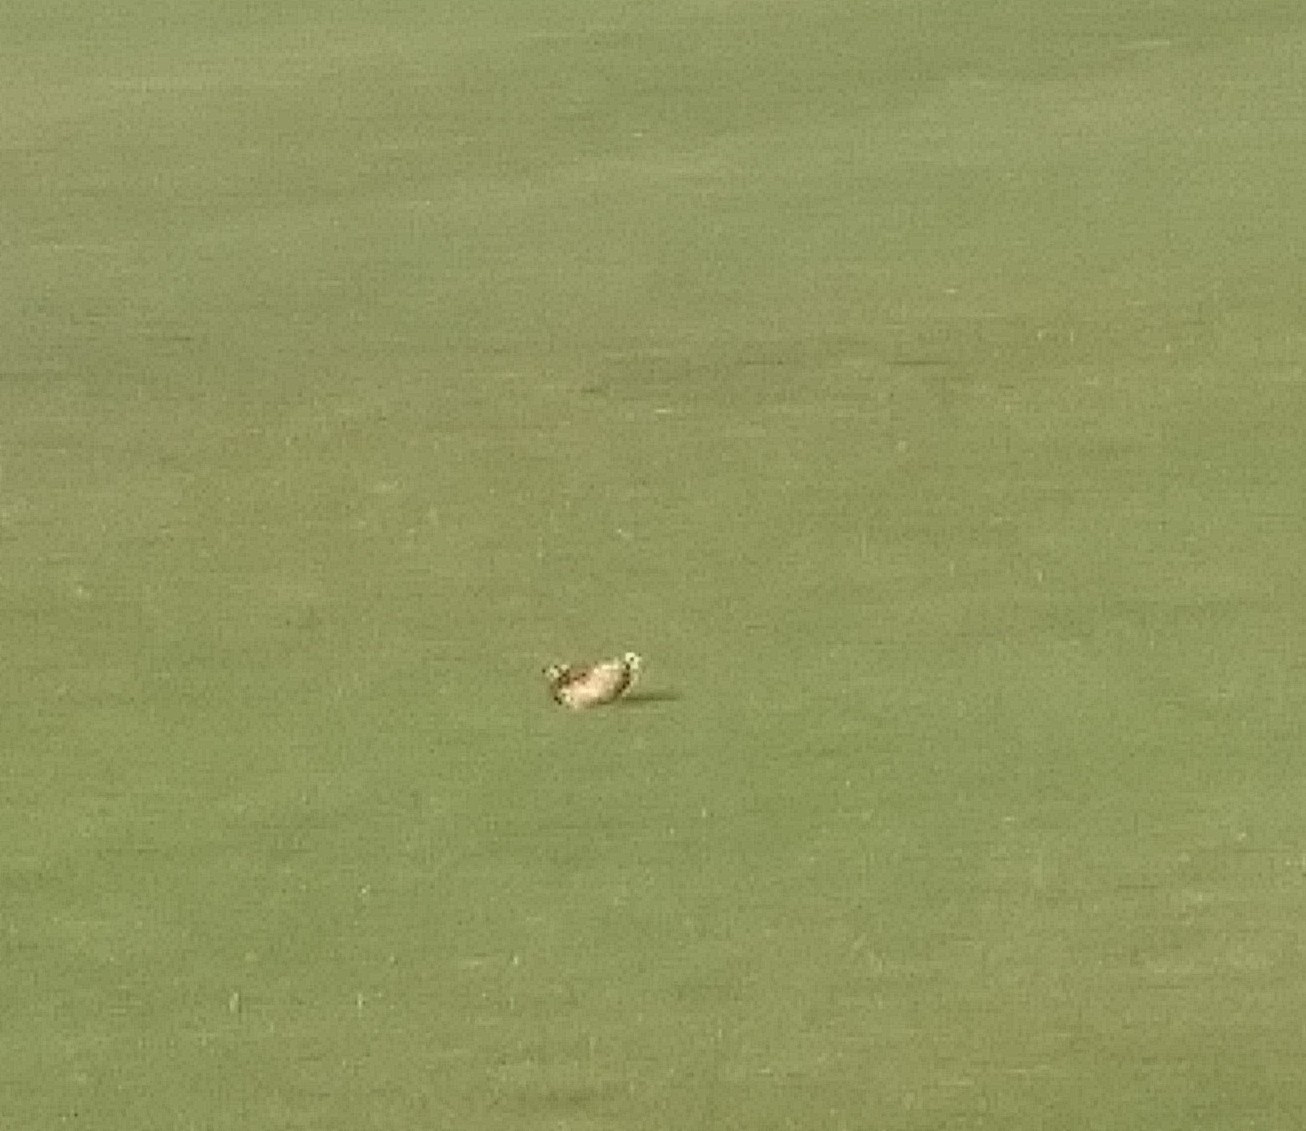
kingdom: Animalia
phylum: Chordata
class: Aves
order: Charadriiformes
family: Charadriidae
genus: Charadrius
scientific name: Charadrius vociferus
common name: Killdeer
